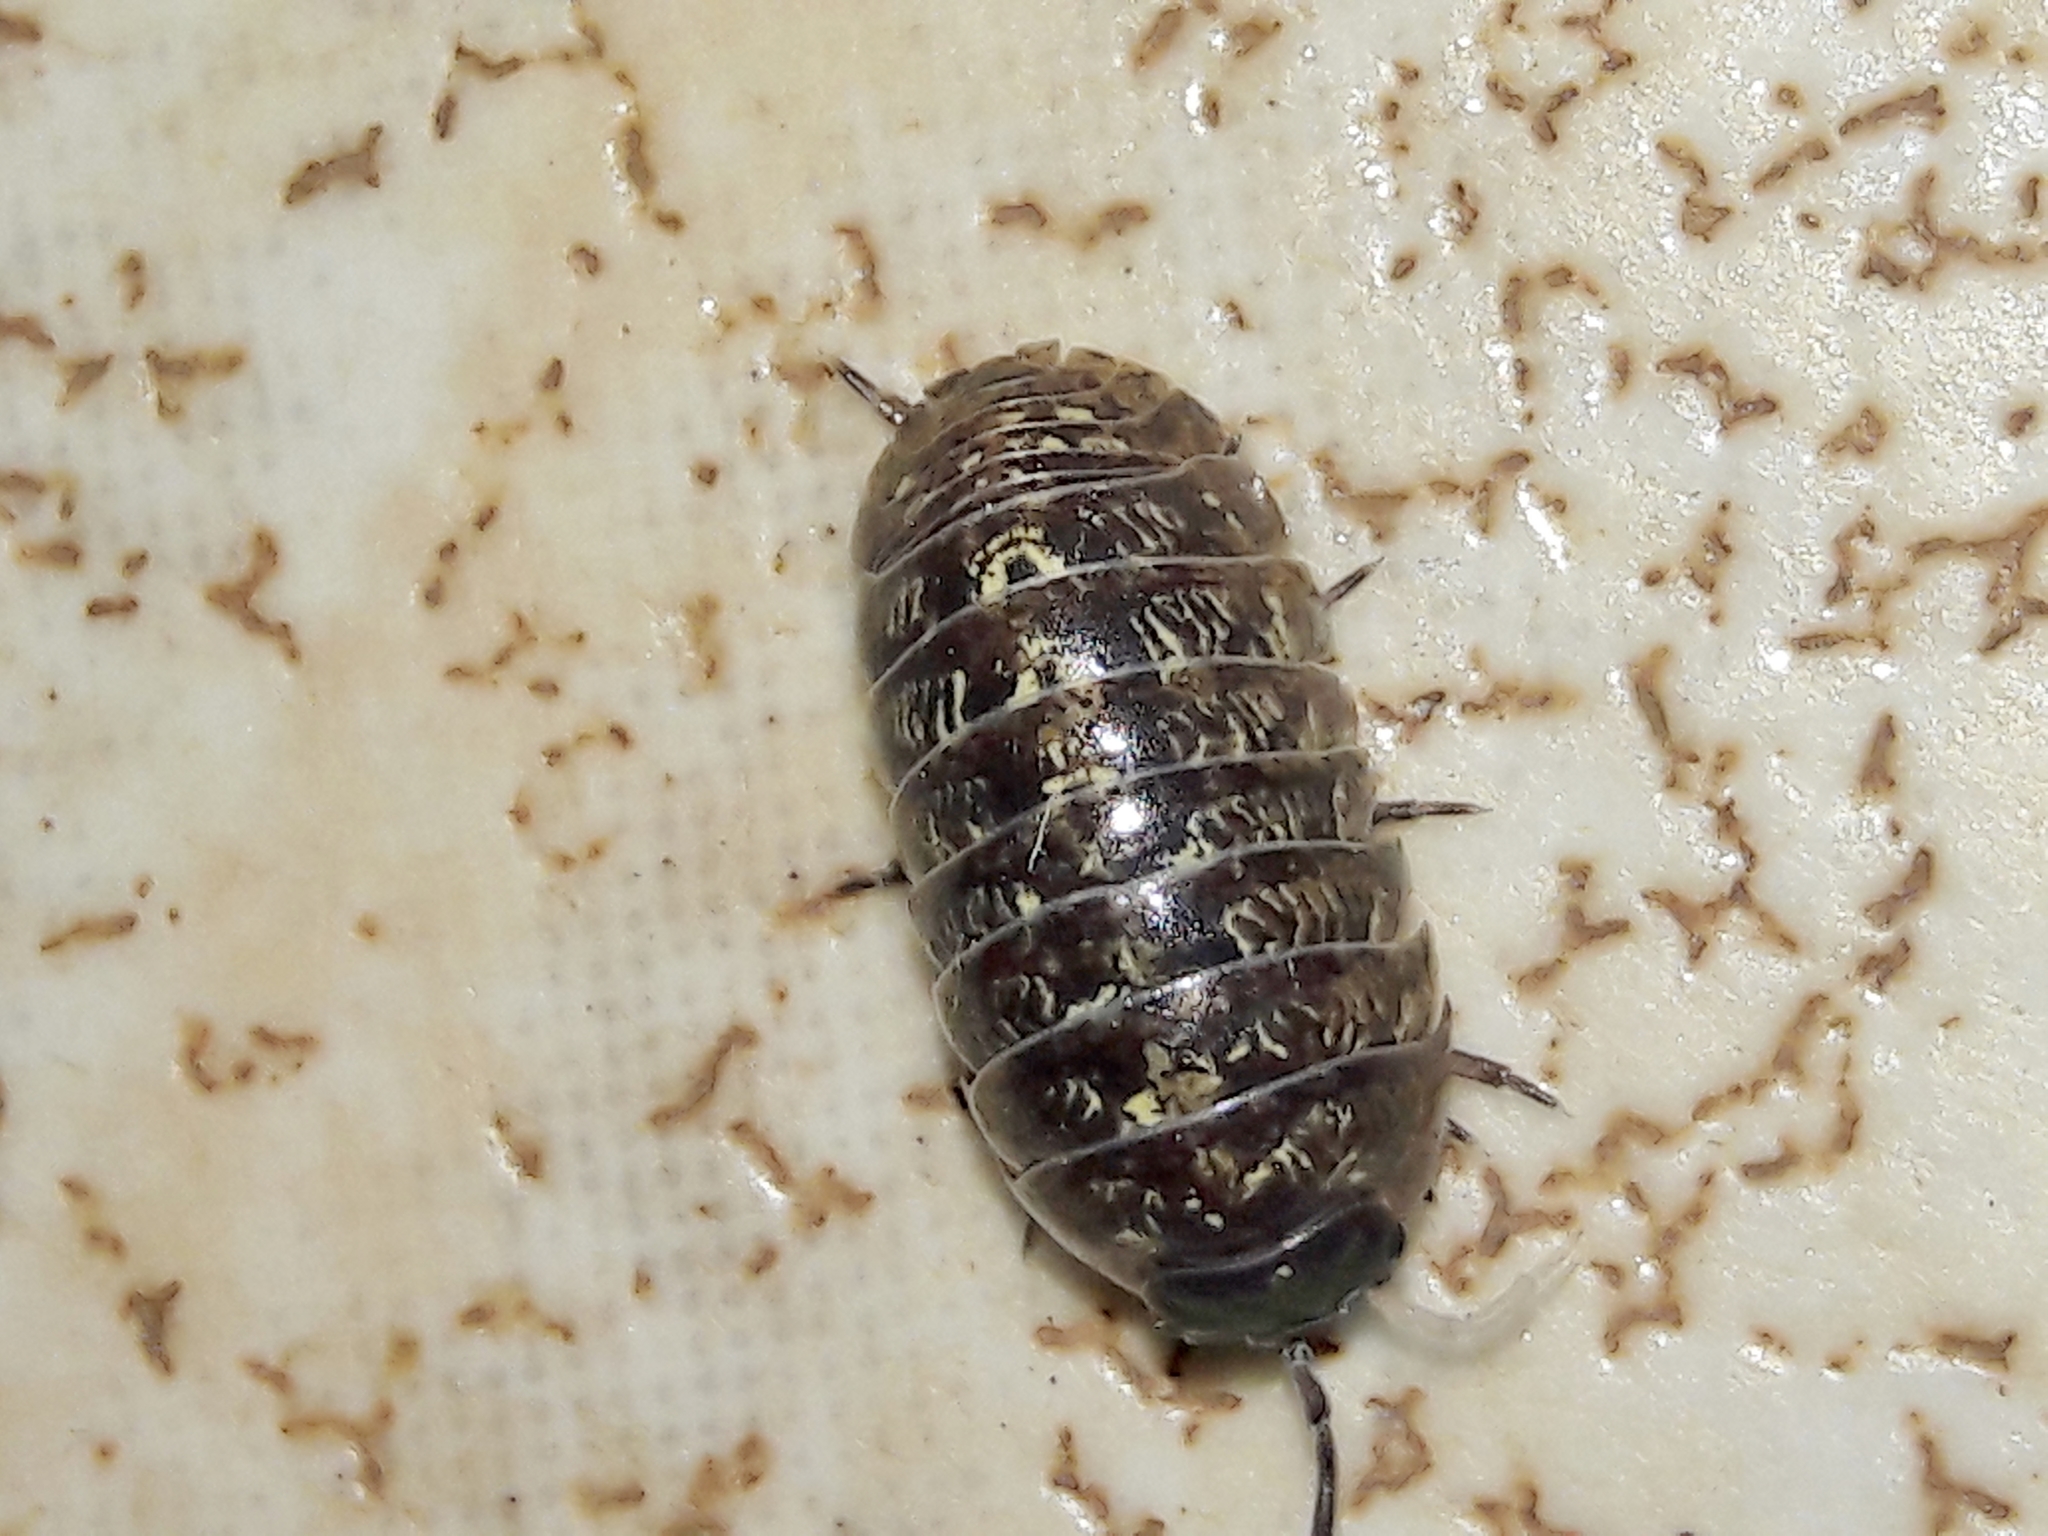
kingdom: Animalia
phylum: Arthropoda
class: Malacostraca
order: Isopoda
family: Armadillidiidae
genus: Armadillidium
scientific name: Armadillidium vulgare
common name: Common pill woodlouse
